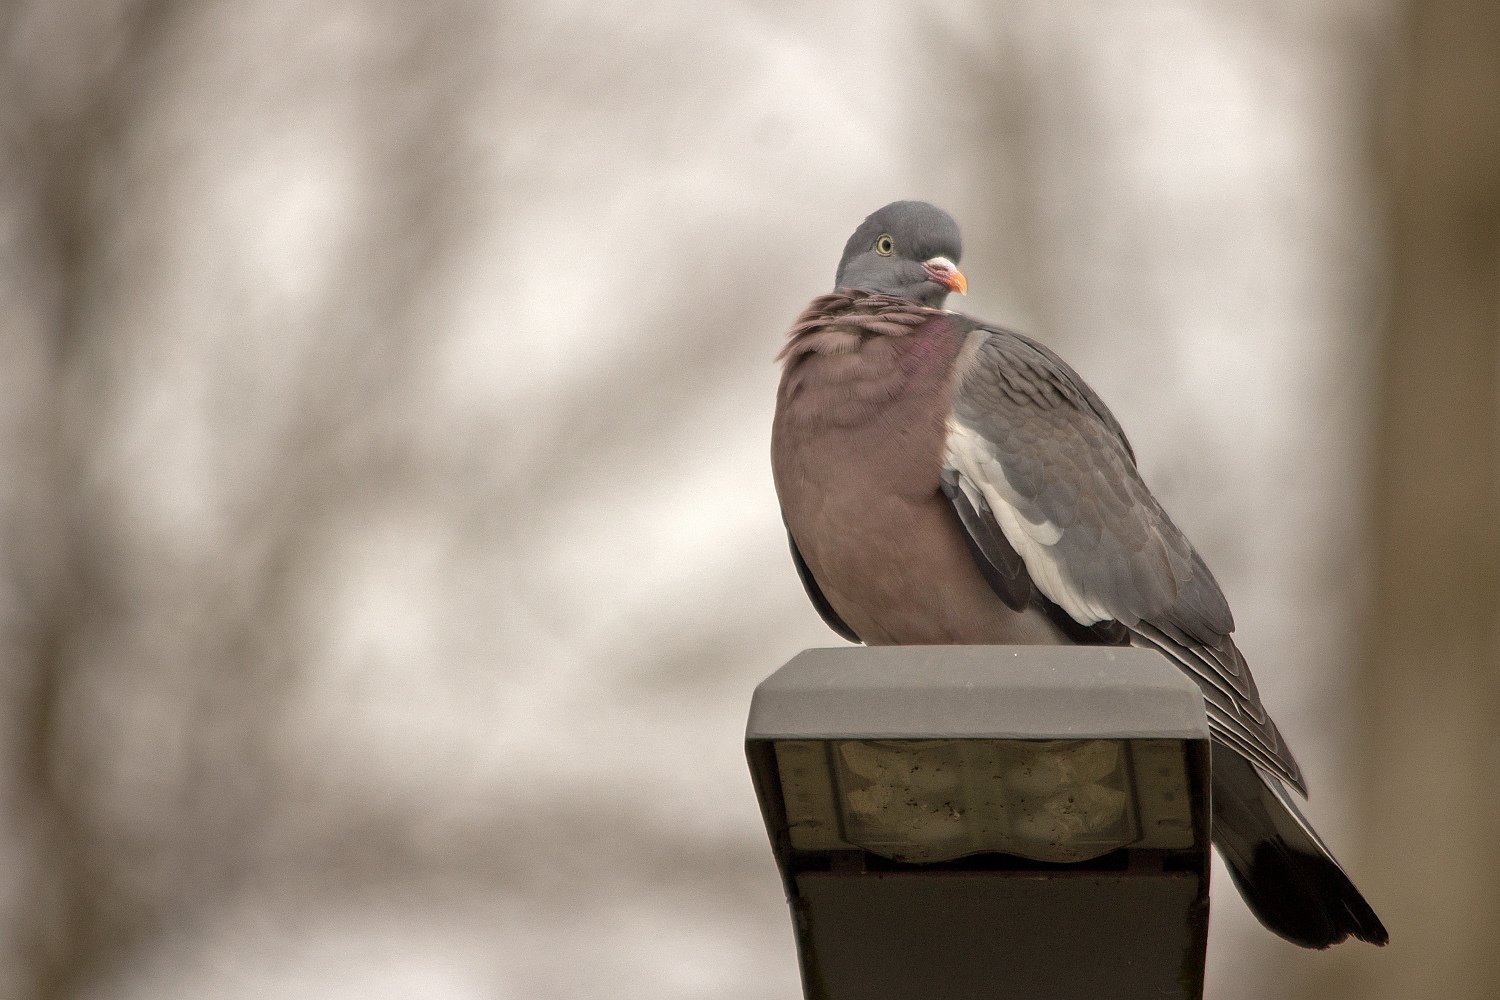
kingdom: Animalia
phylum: Chordata
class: Aves
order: Columbiformes
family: Columbidae
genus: Columba
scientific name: Columba palumbus
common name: Common wood pigeon
